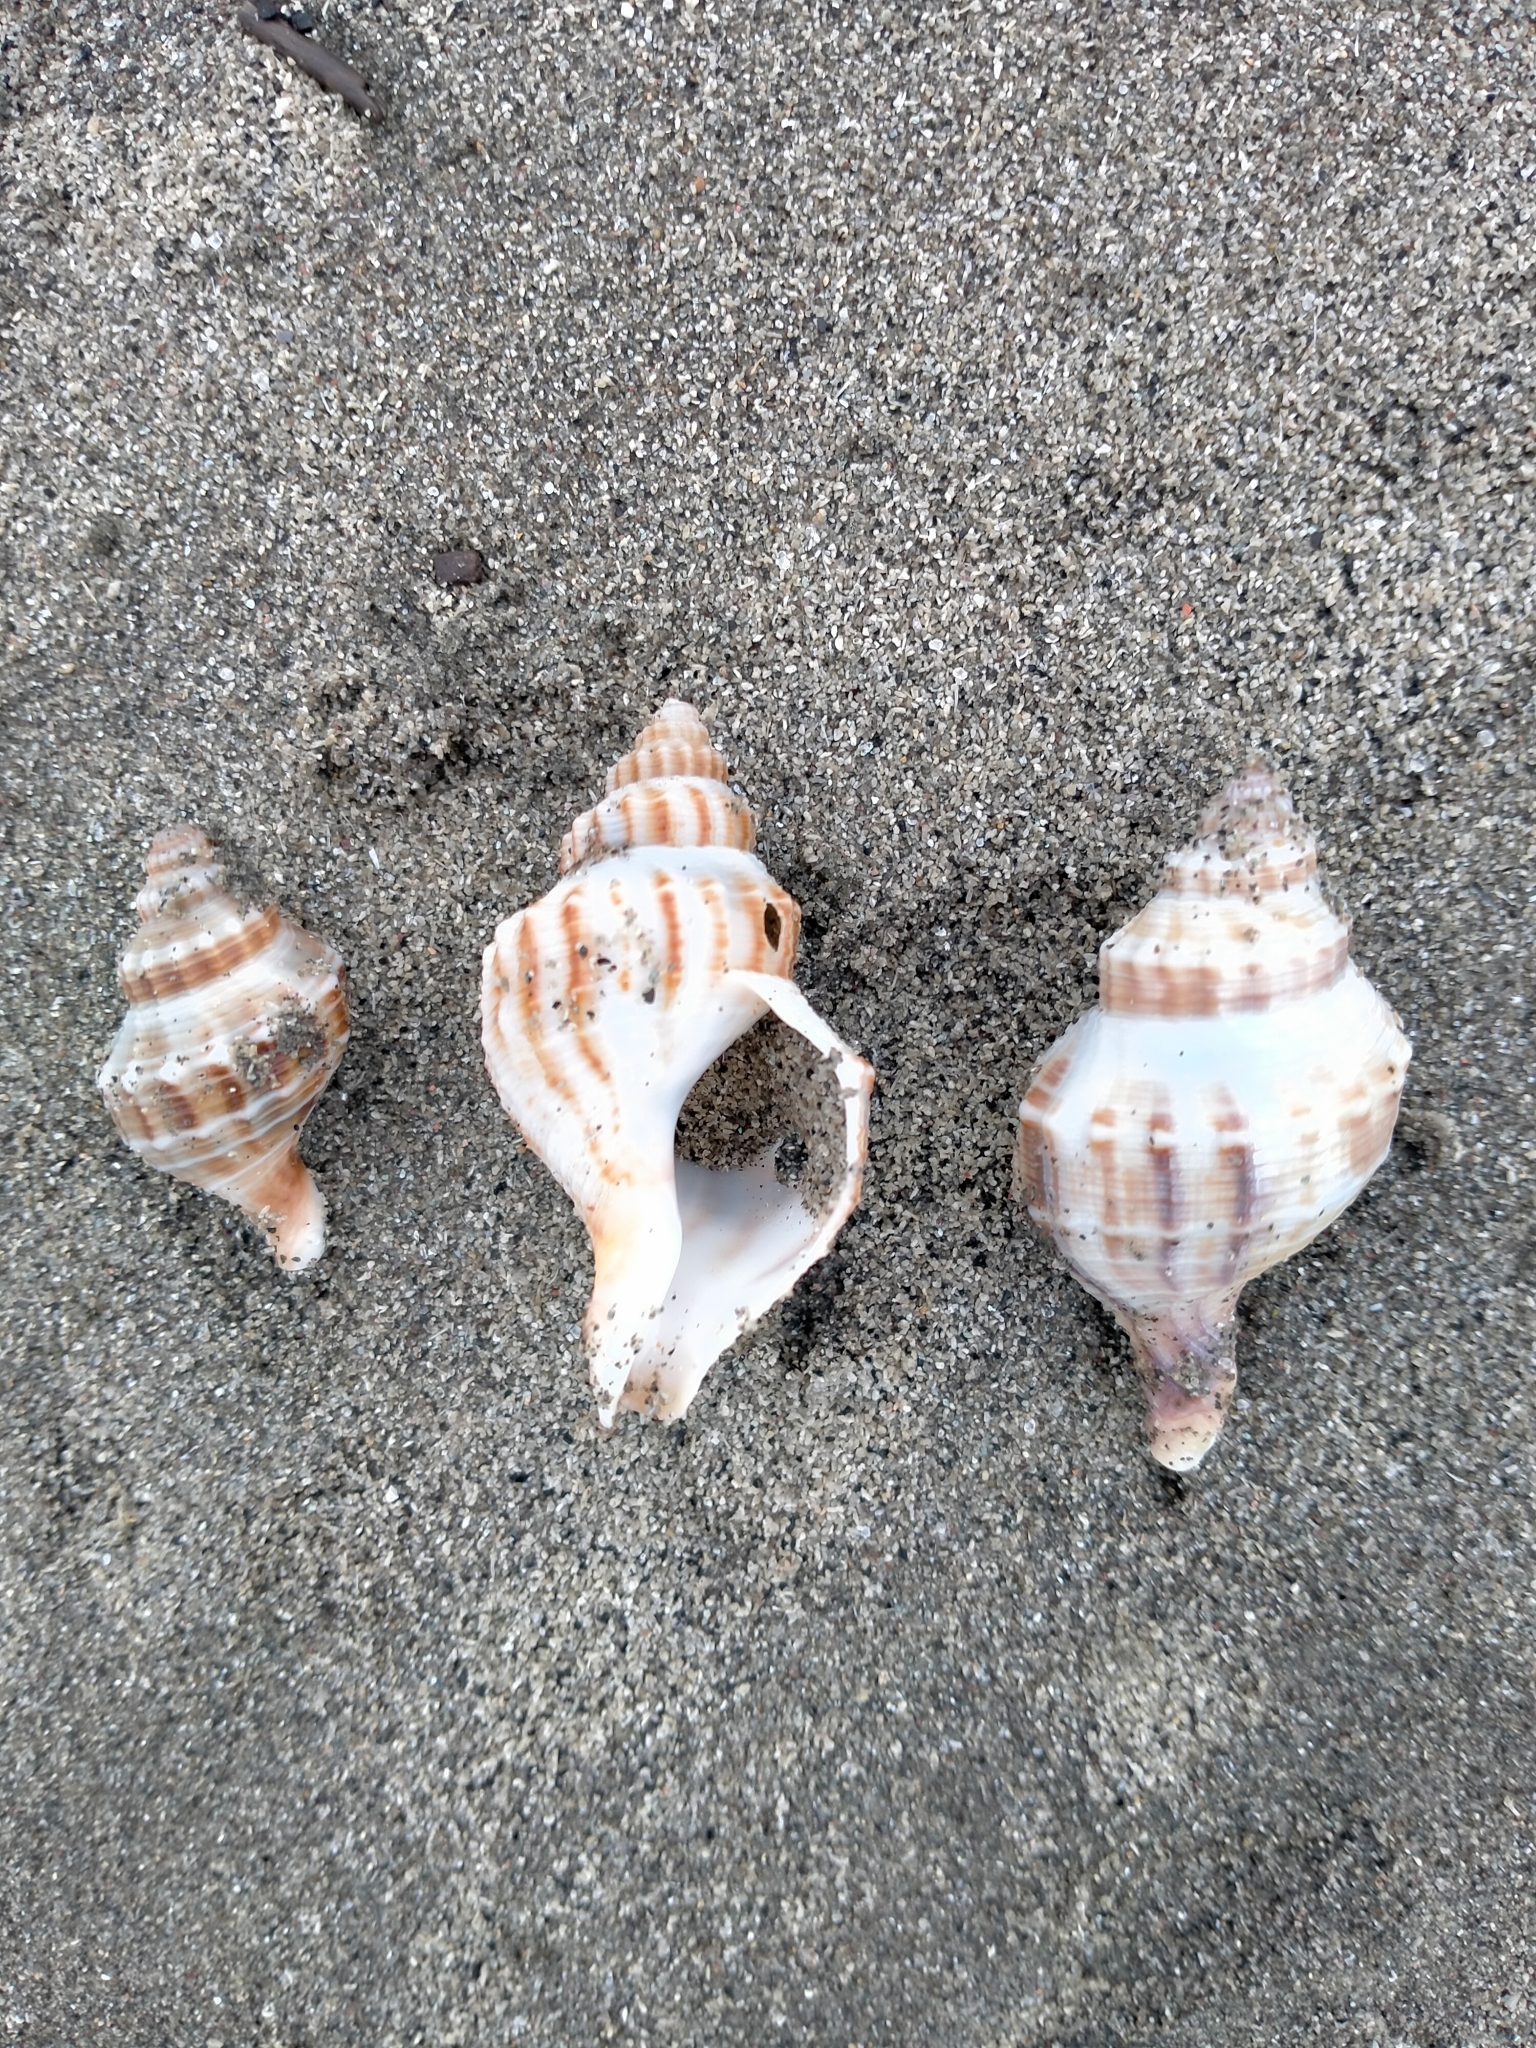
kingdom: Animalia
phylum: Mollusca
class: Gastropoda
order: Neogastropoda
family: Prosiphonidae
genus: Austrofusus
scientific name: Austrofusus glans
